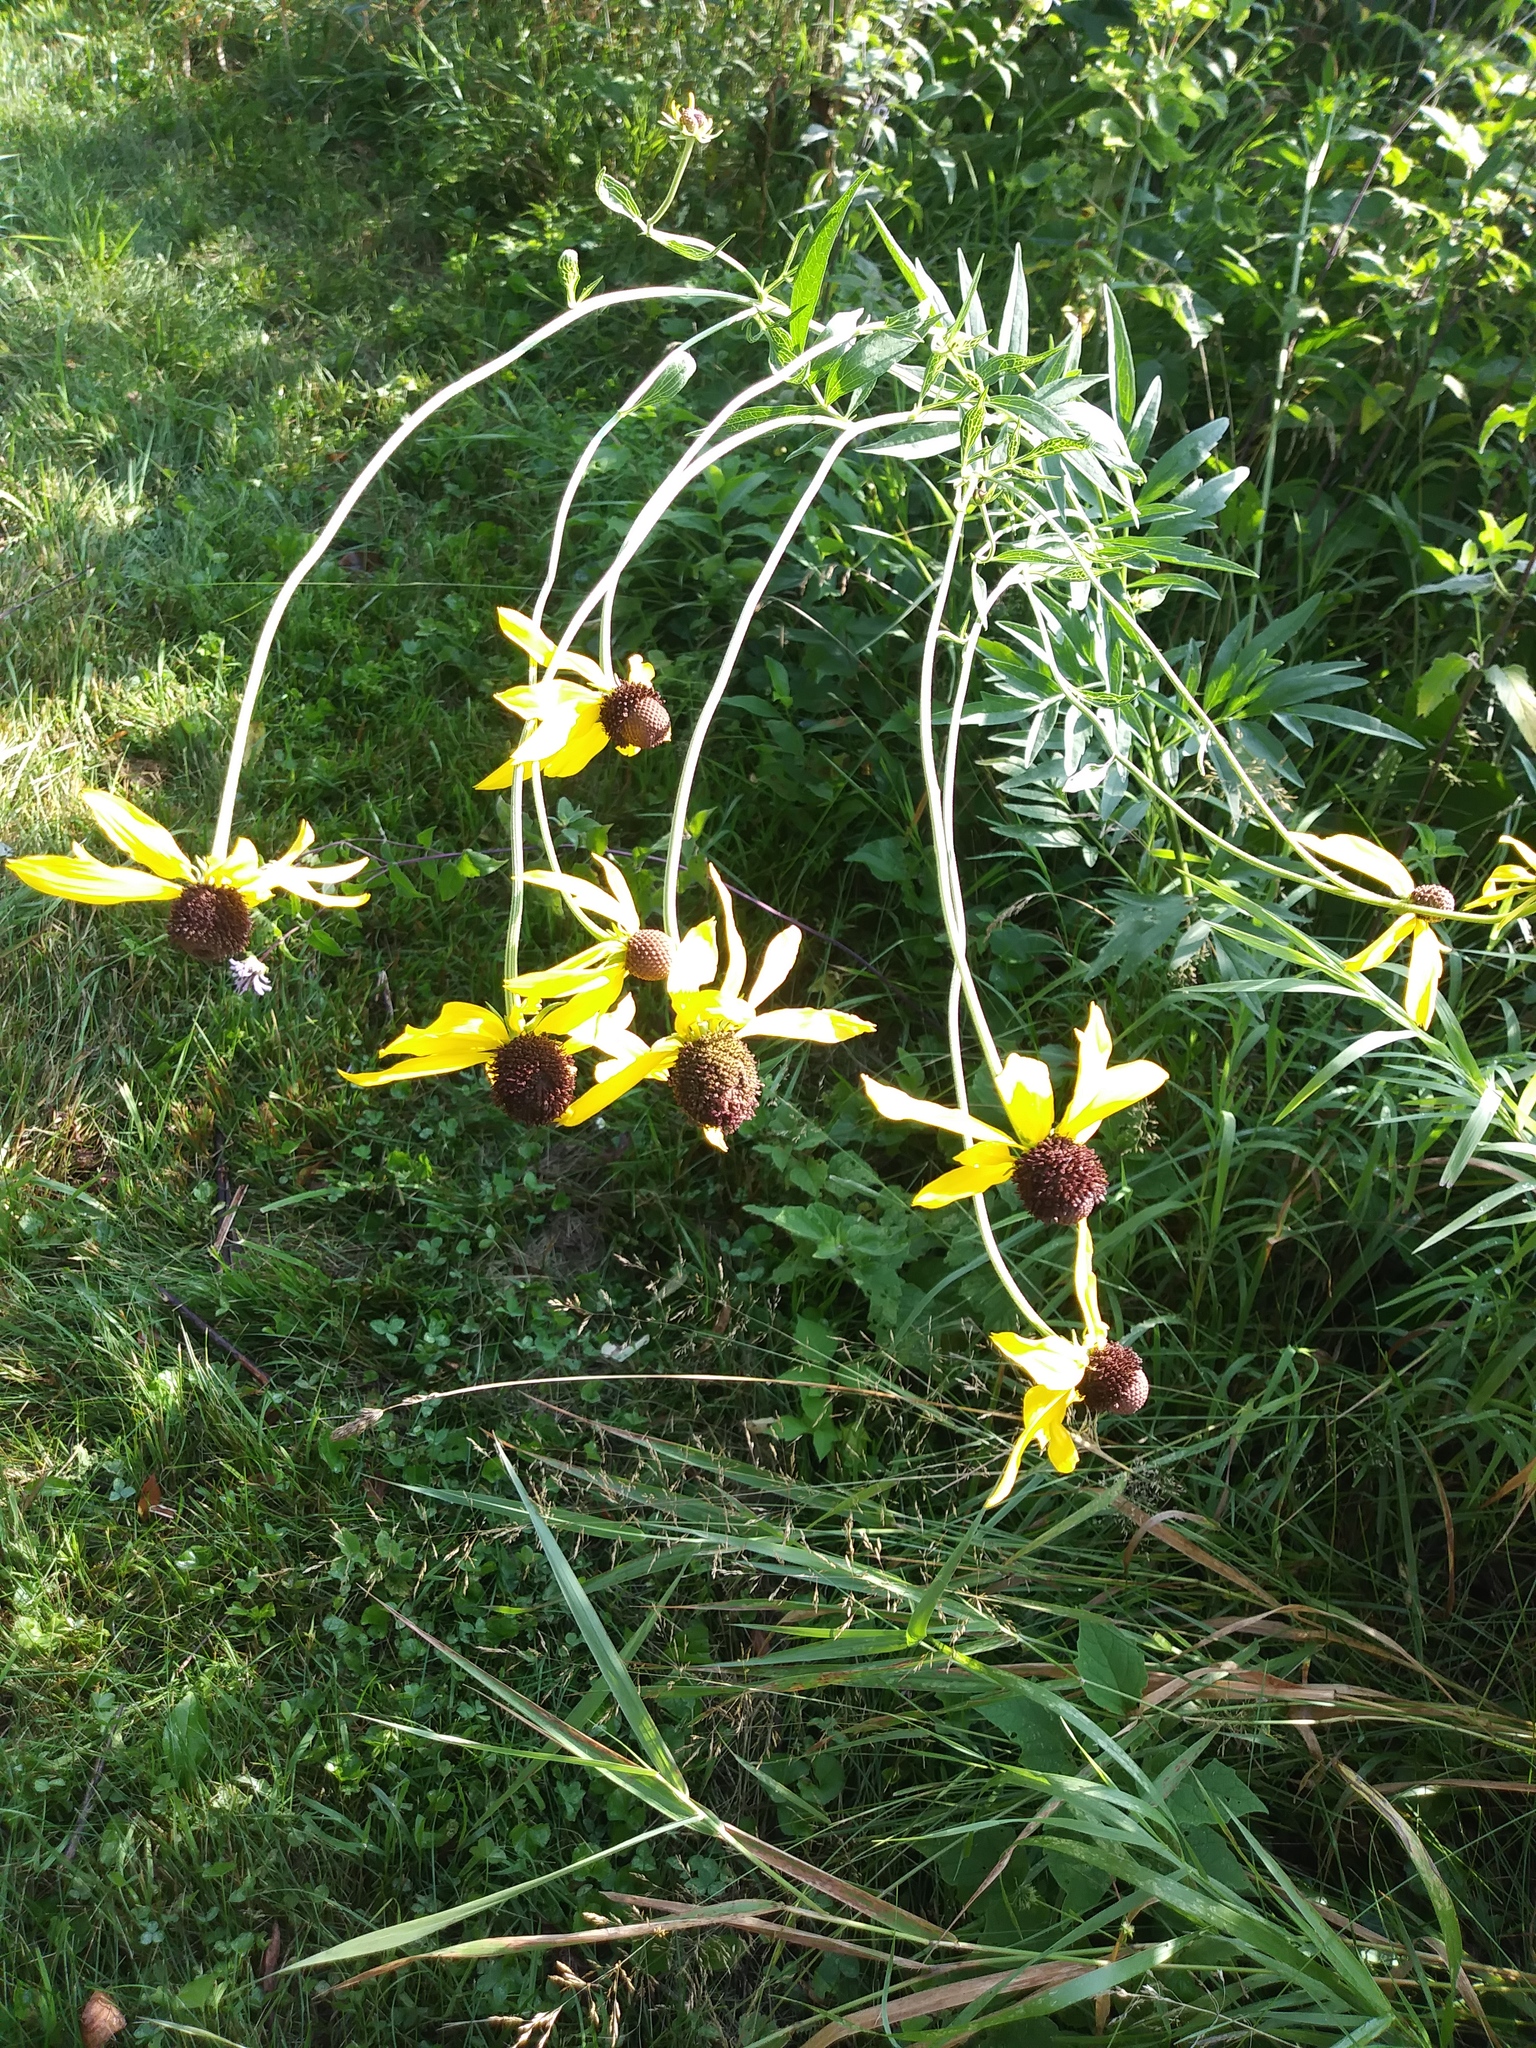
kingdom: Plantae
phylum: Tracheophyta
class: Magnoliopsida
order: Asterales
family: Asteraceae
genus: Ratibida
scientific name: Ratibida pinnata
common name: Drooping prairie-coneflower
